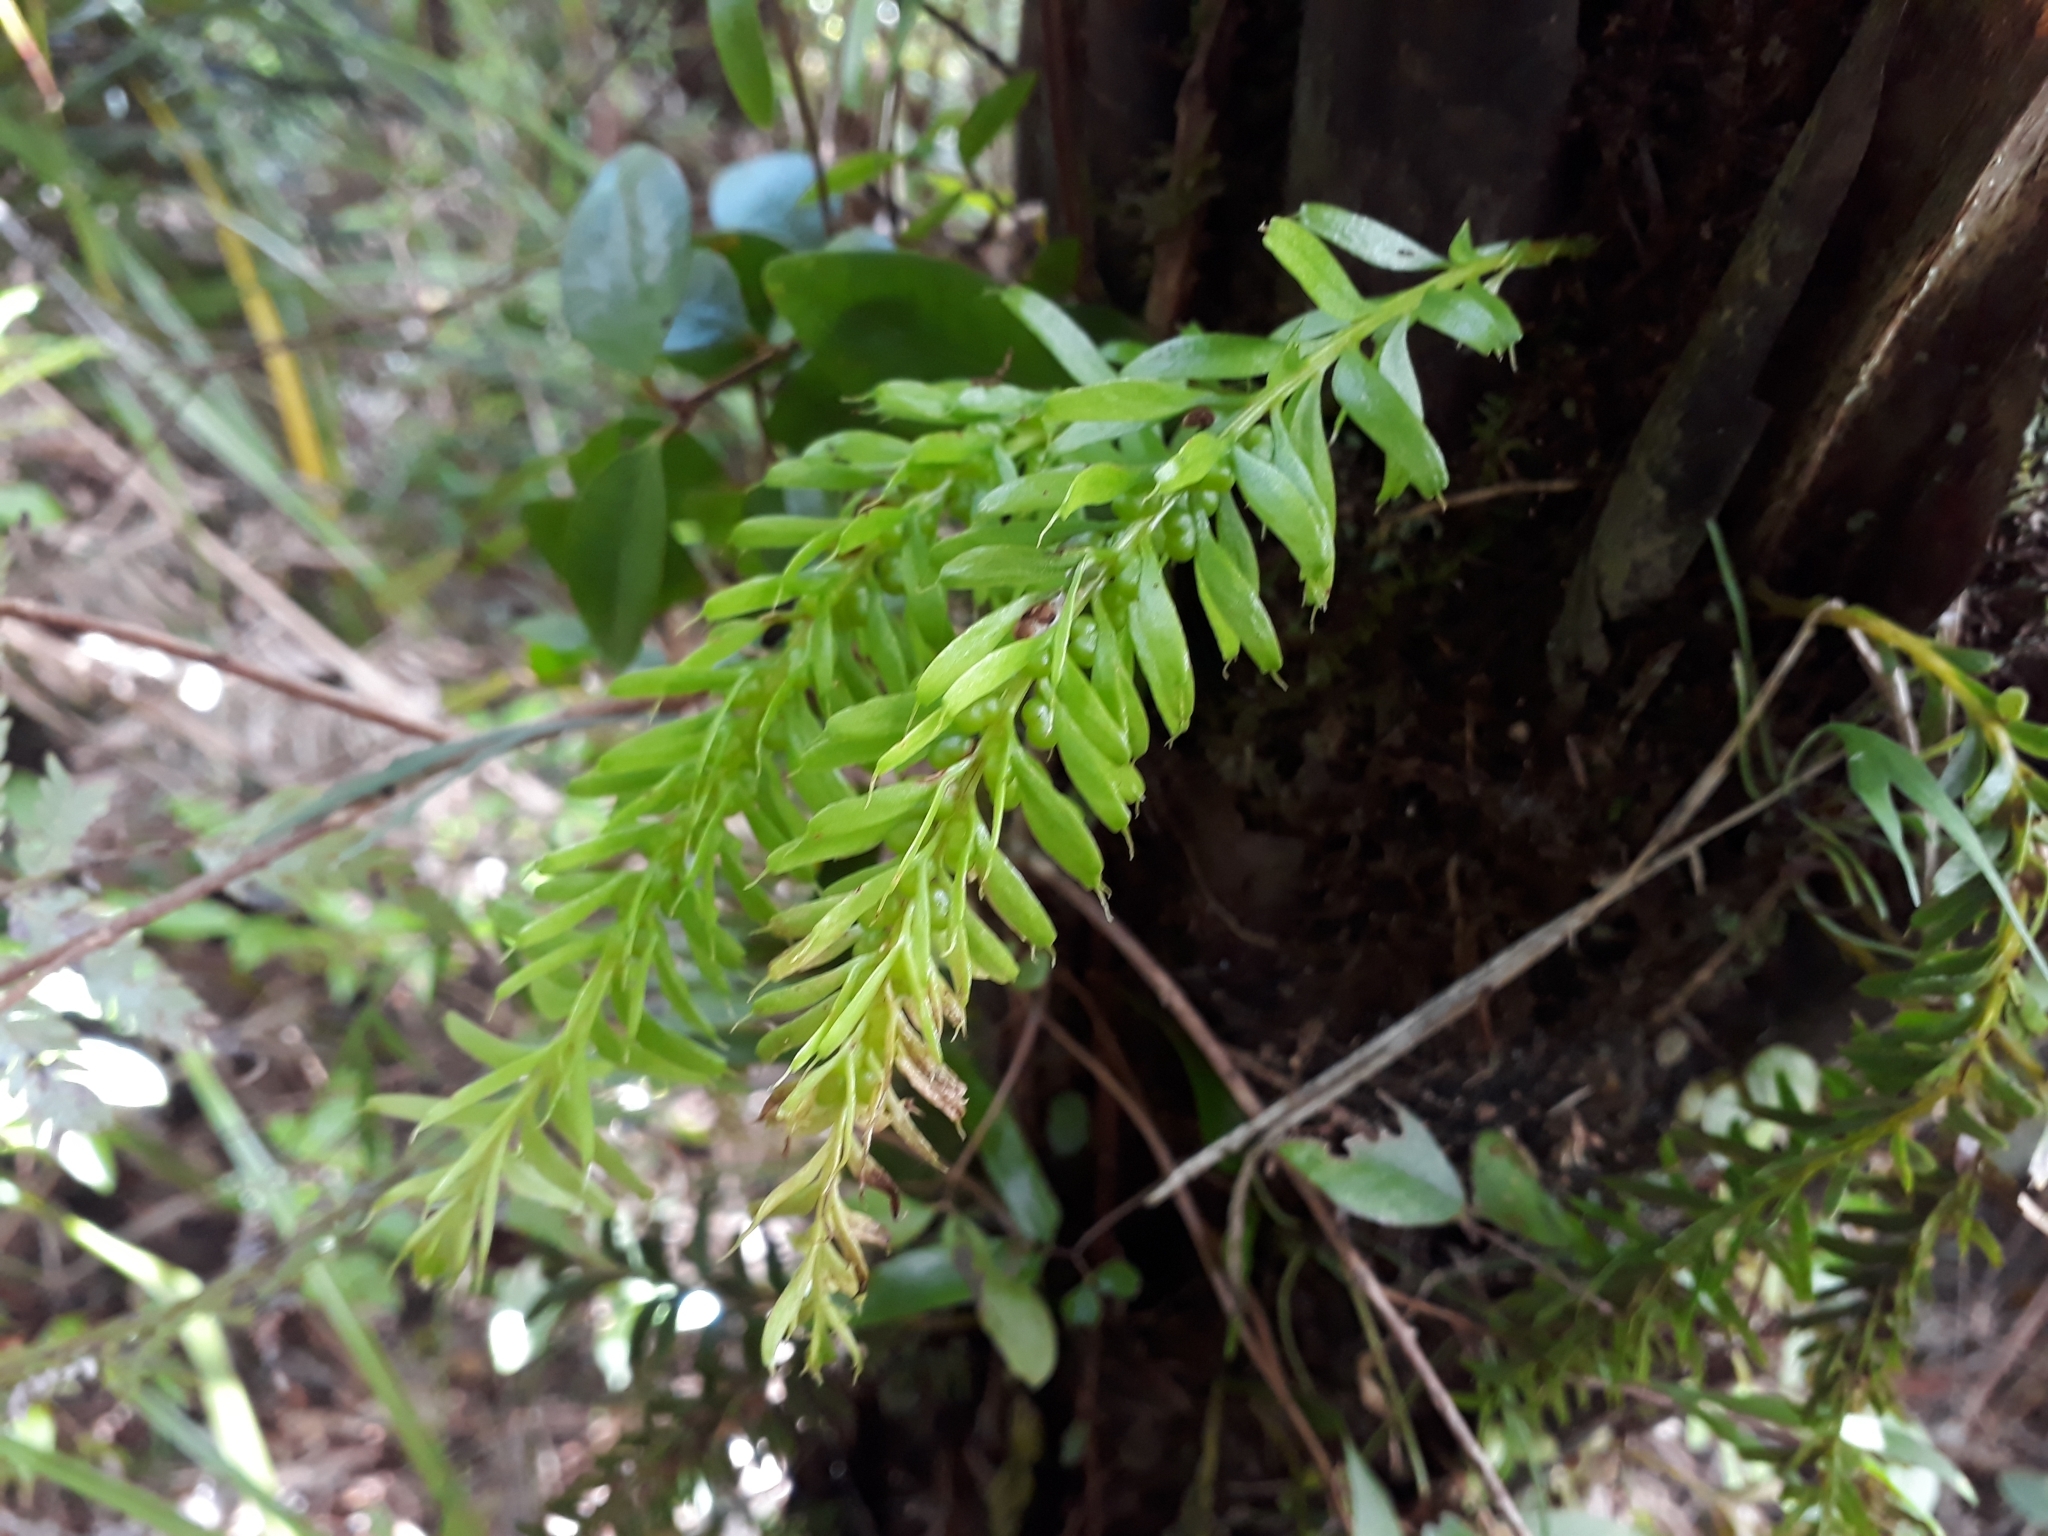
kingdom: Plantae
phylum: Tracheophyta
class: Polypodiopsida
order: Psilotales
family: Psilotaceae
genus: Tmesipteris
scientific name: Tmesipteris sigmatifolia
